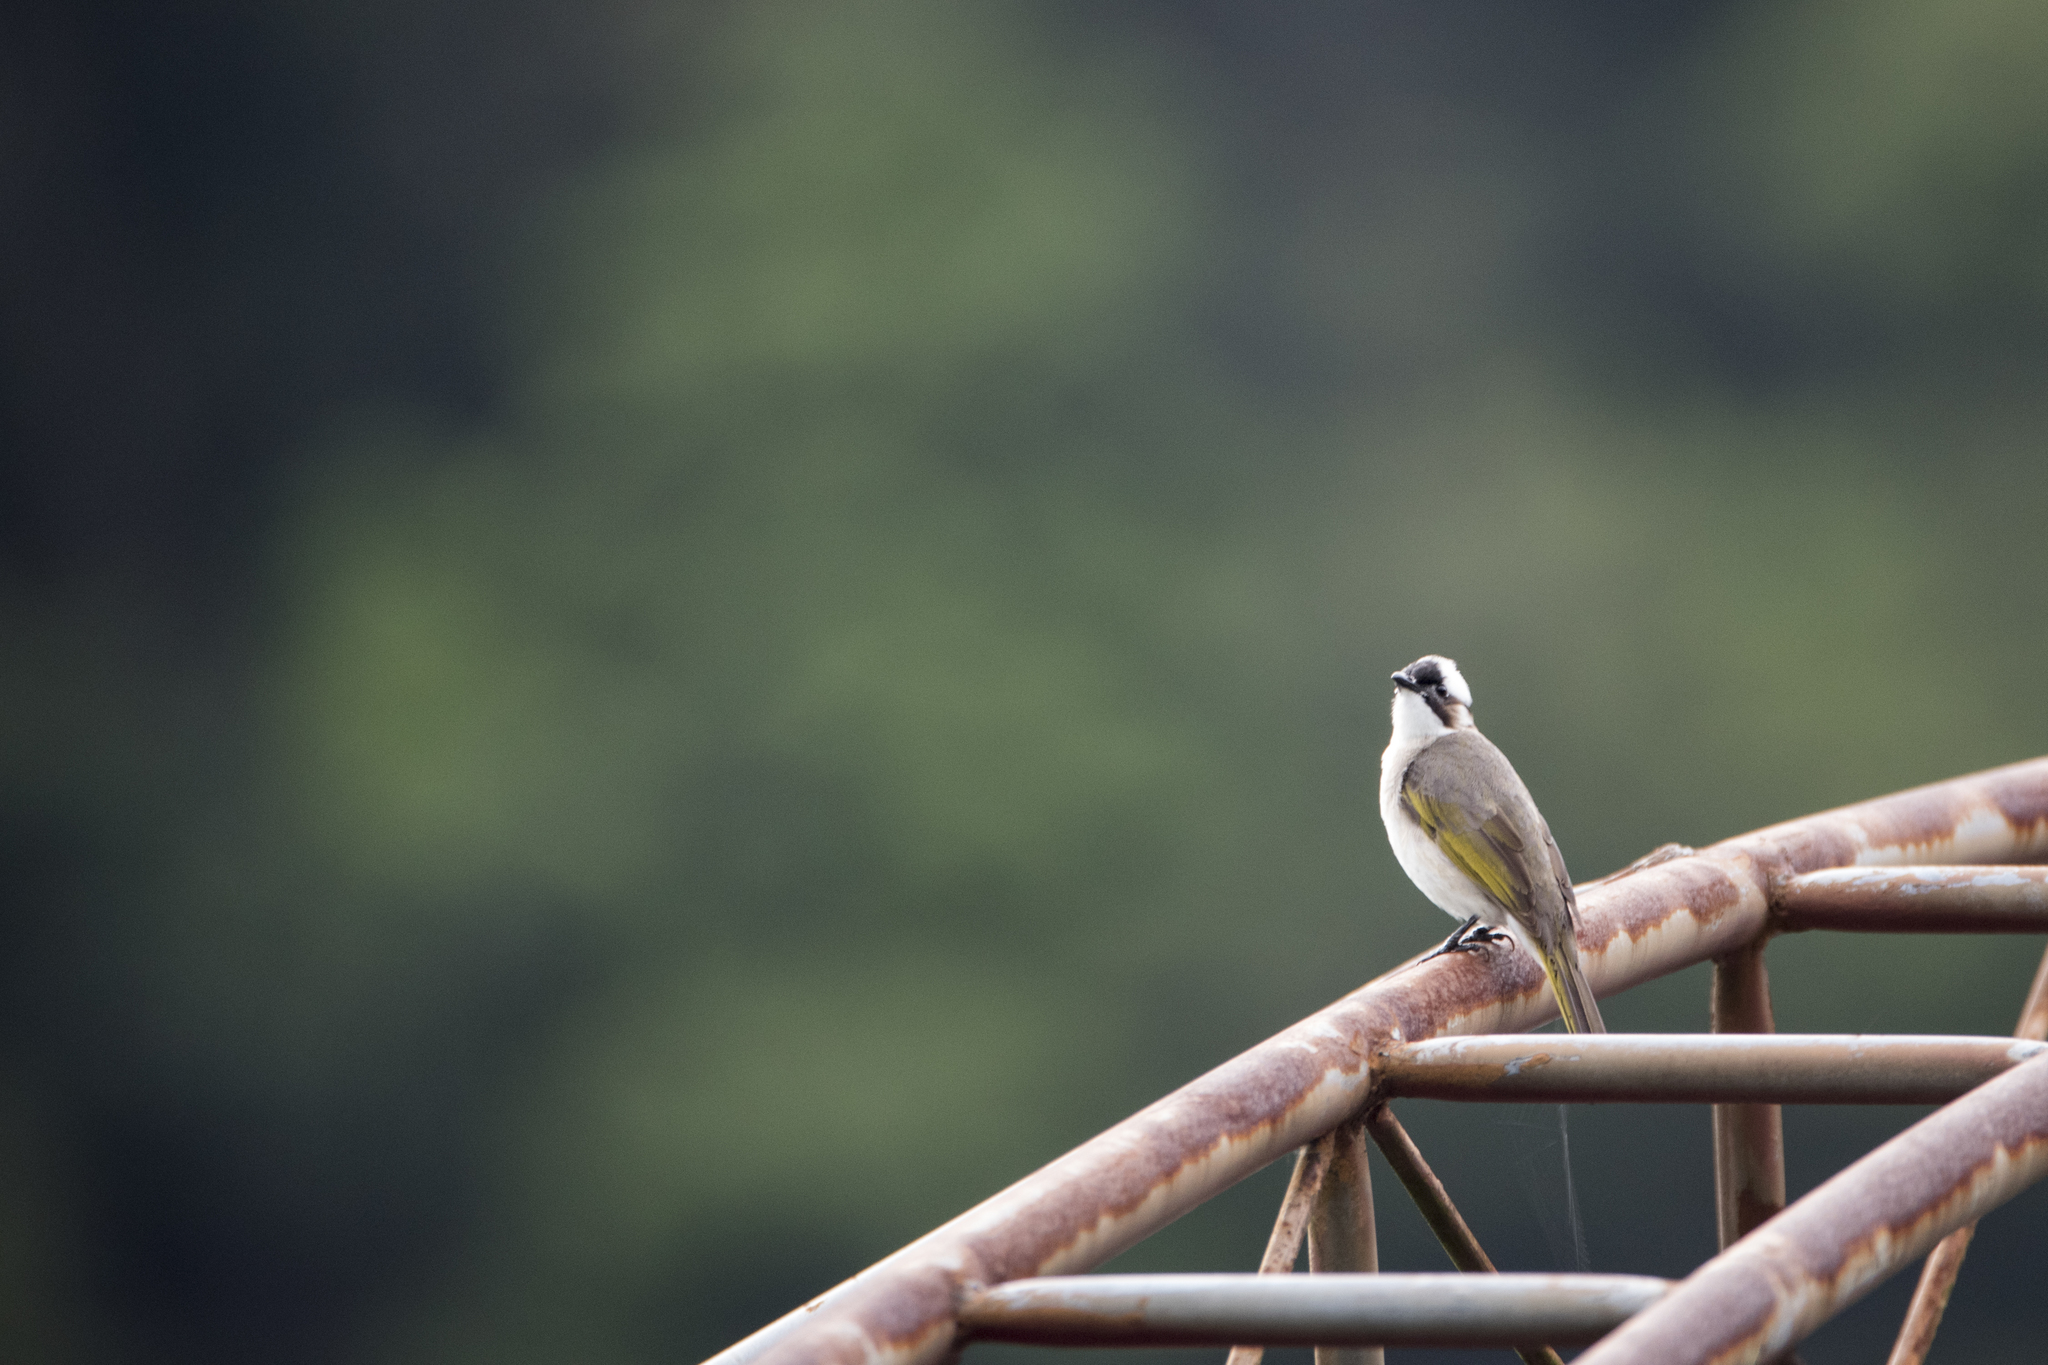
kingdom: Animalia
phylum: Chordata
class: Aves
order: Passeriformes
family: Pycnonotidae
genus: Pycnonotus
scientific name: Pycnonotus sinensis
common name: Light-vented bulbul
